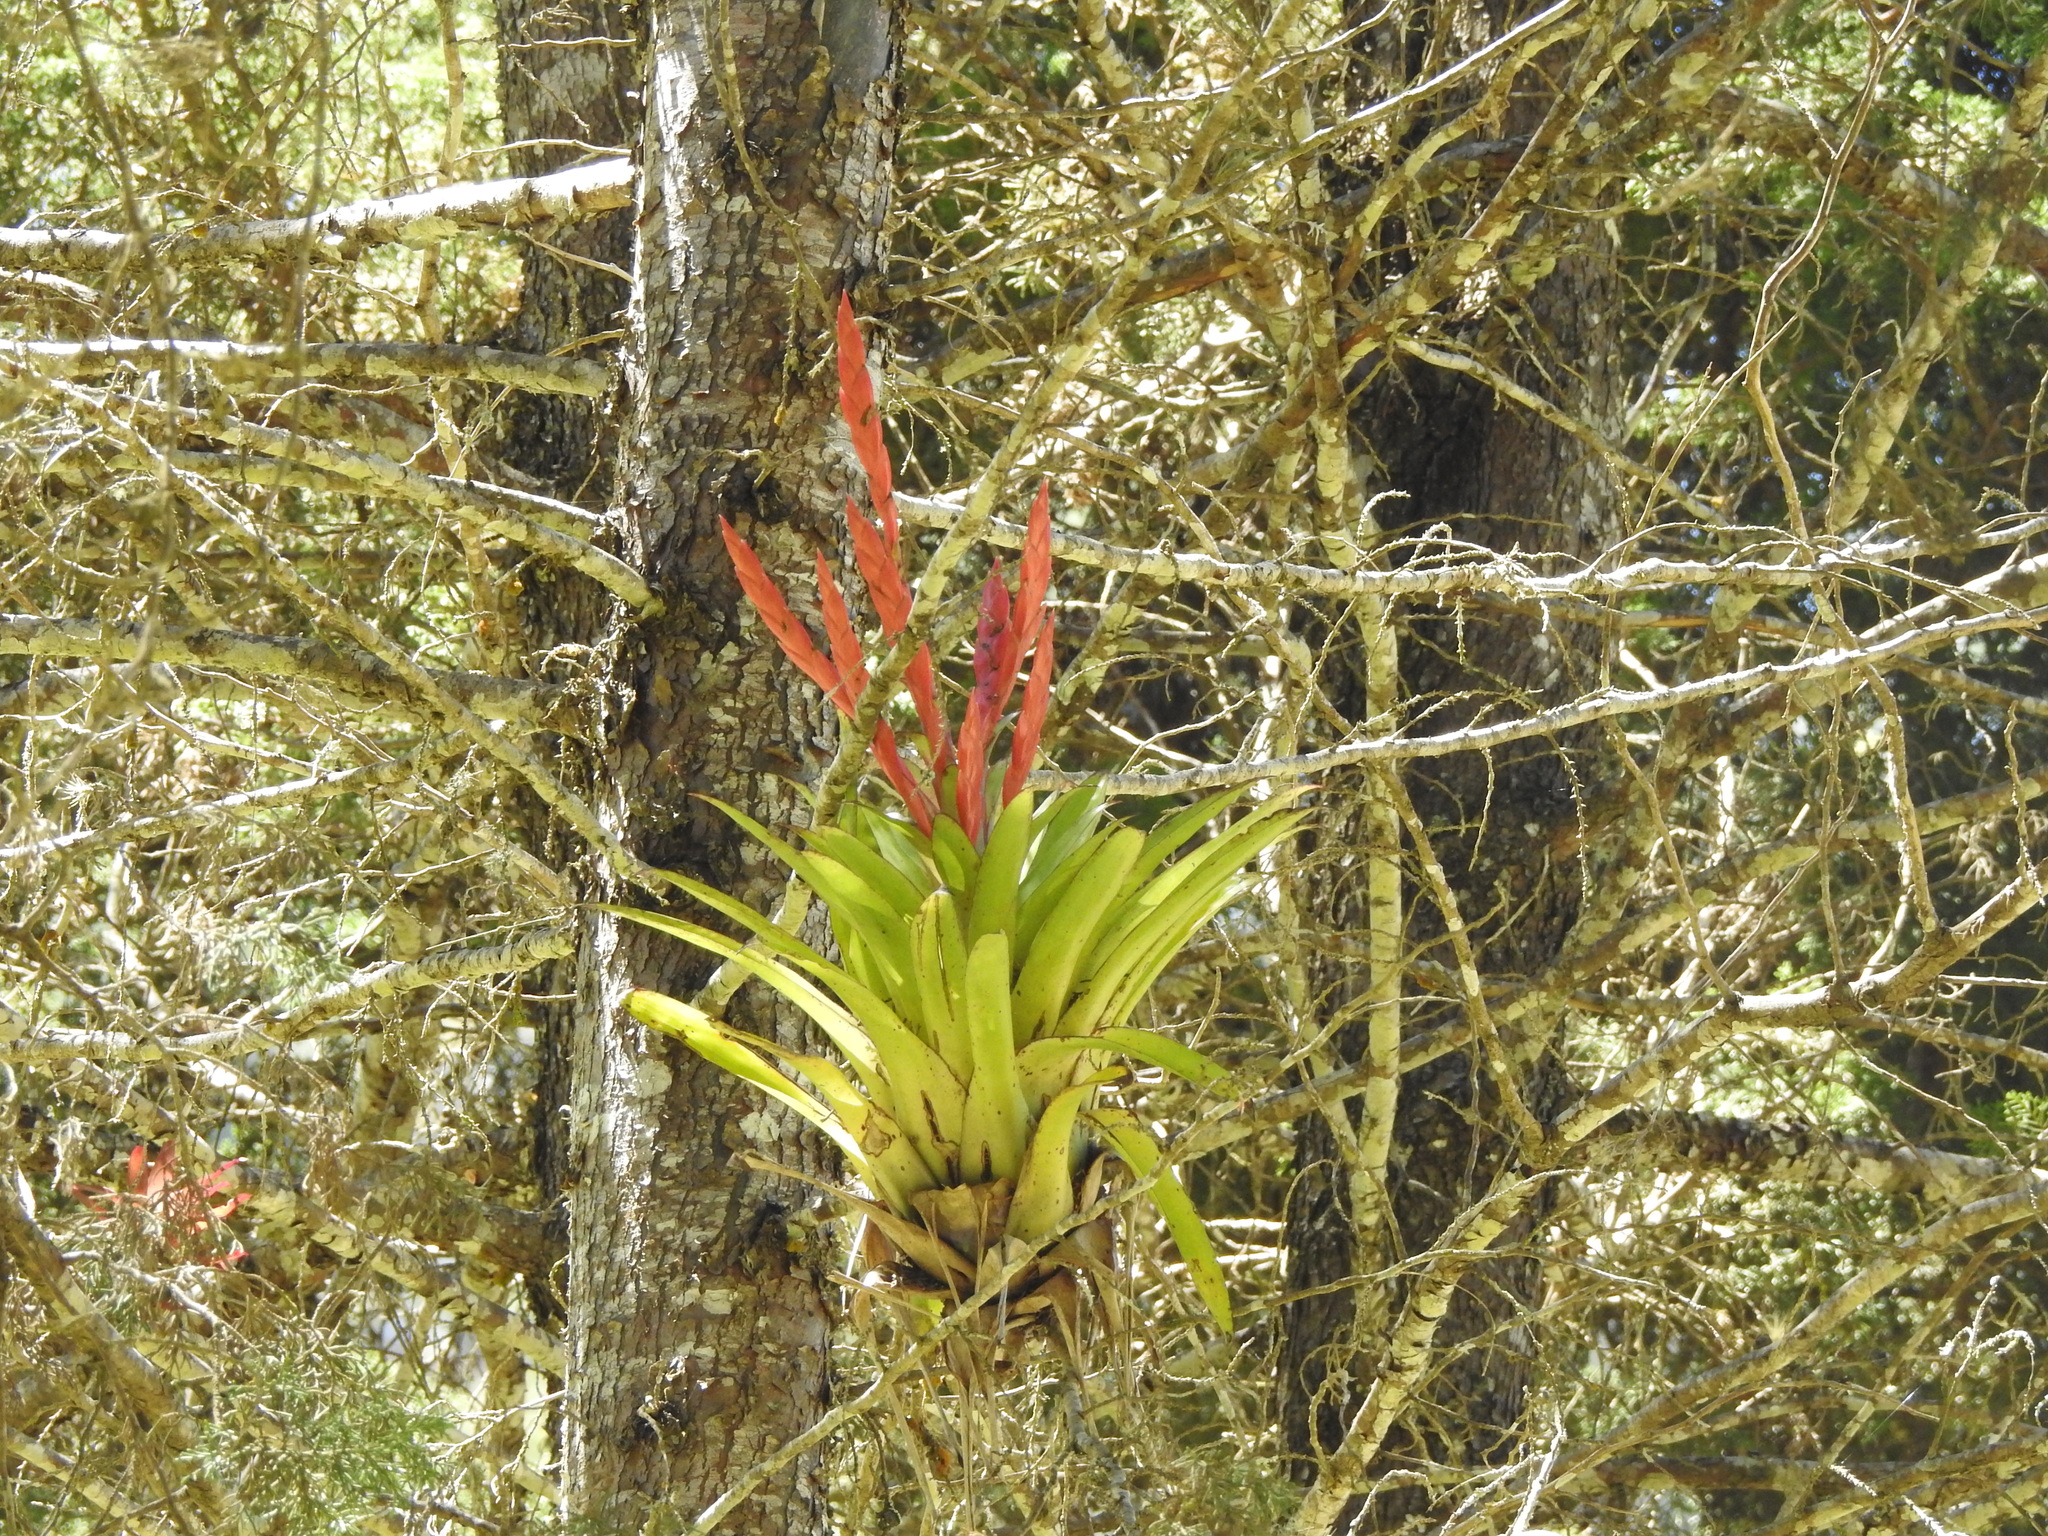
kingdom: Plantae
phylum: Tracheophyta
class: Liliopsida
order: Poales
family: Bromeliaceae
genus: Tillandsia
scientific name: Tillandsia deppeana
